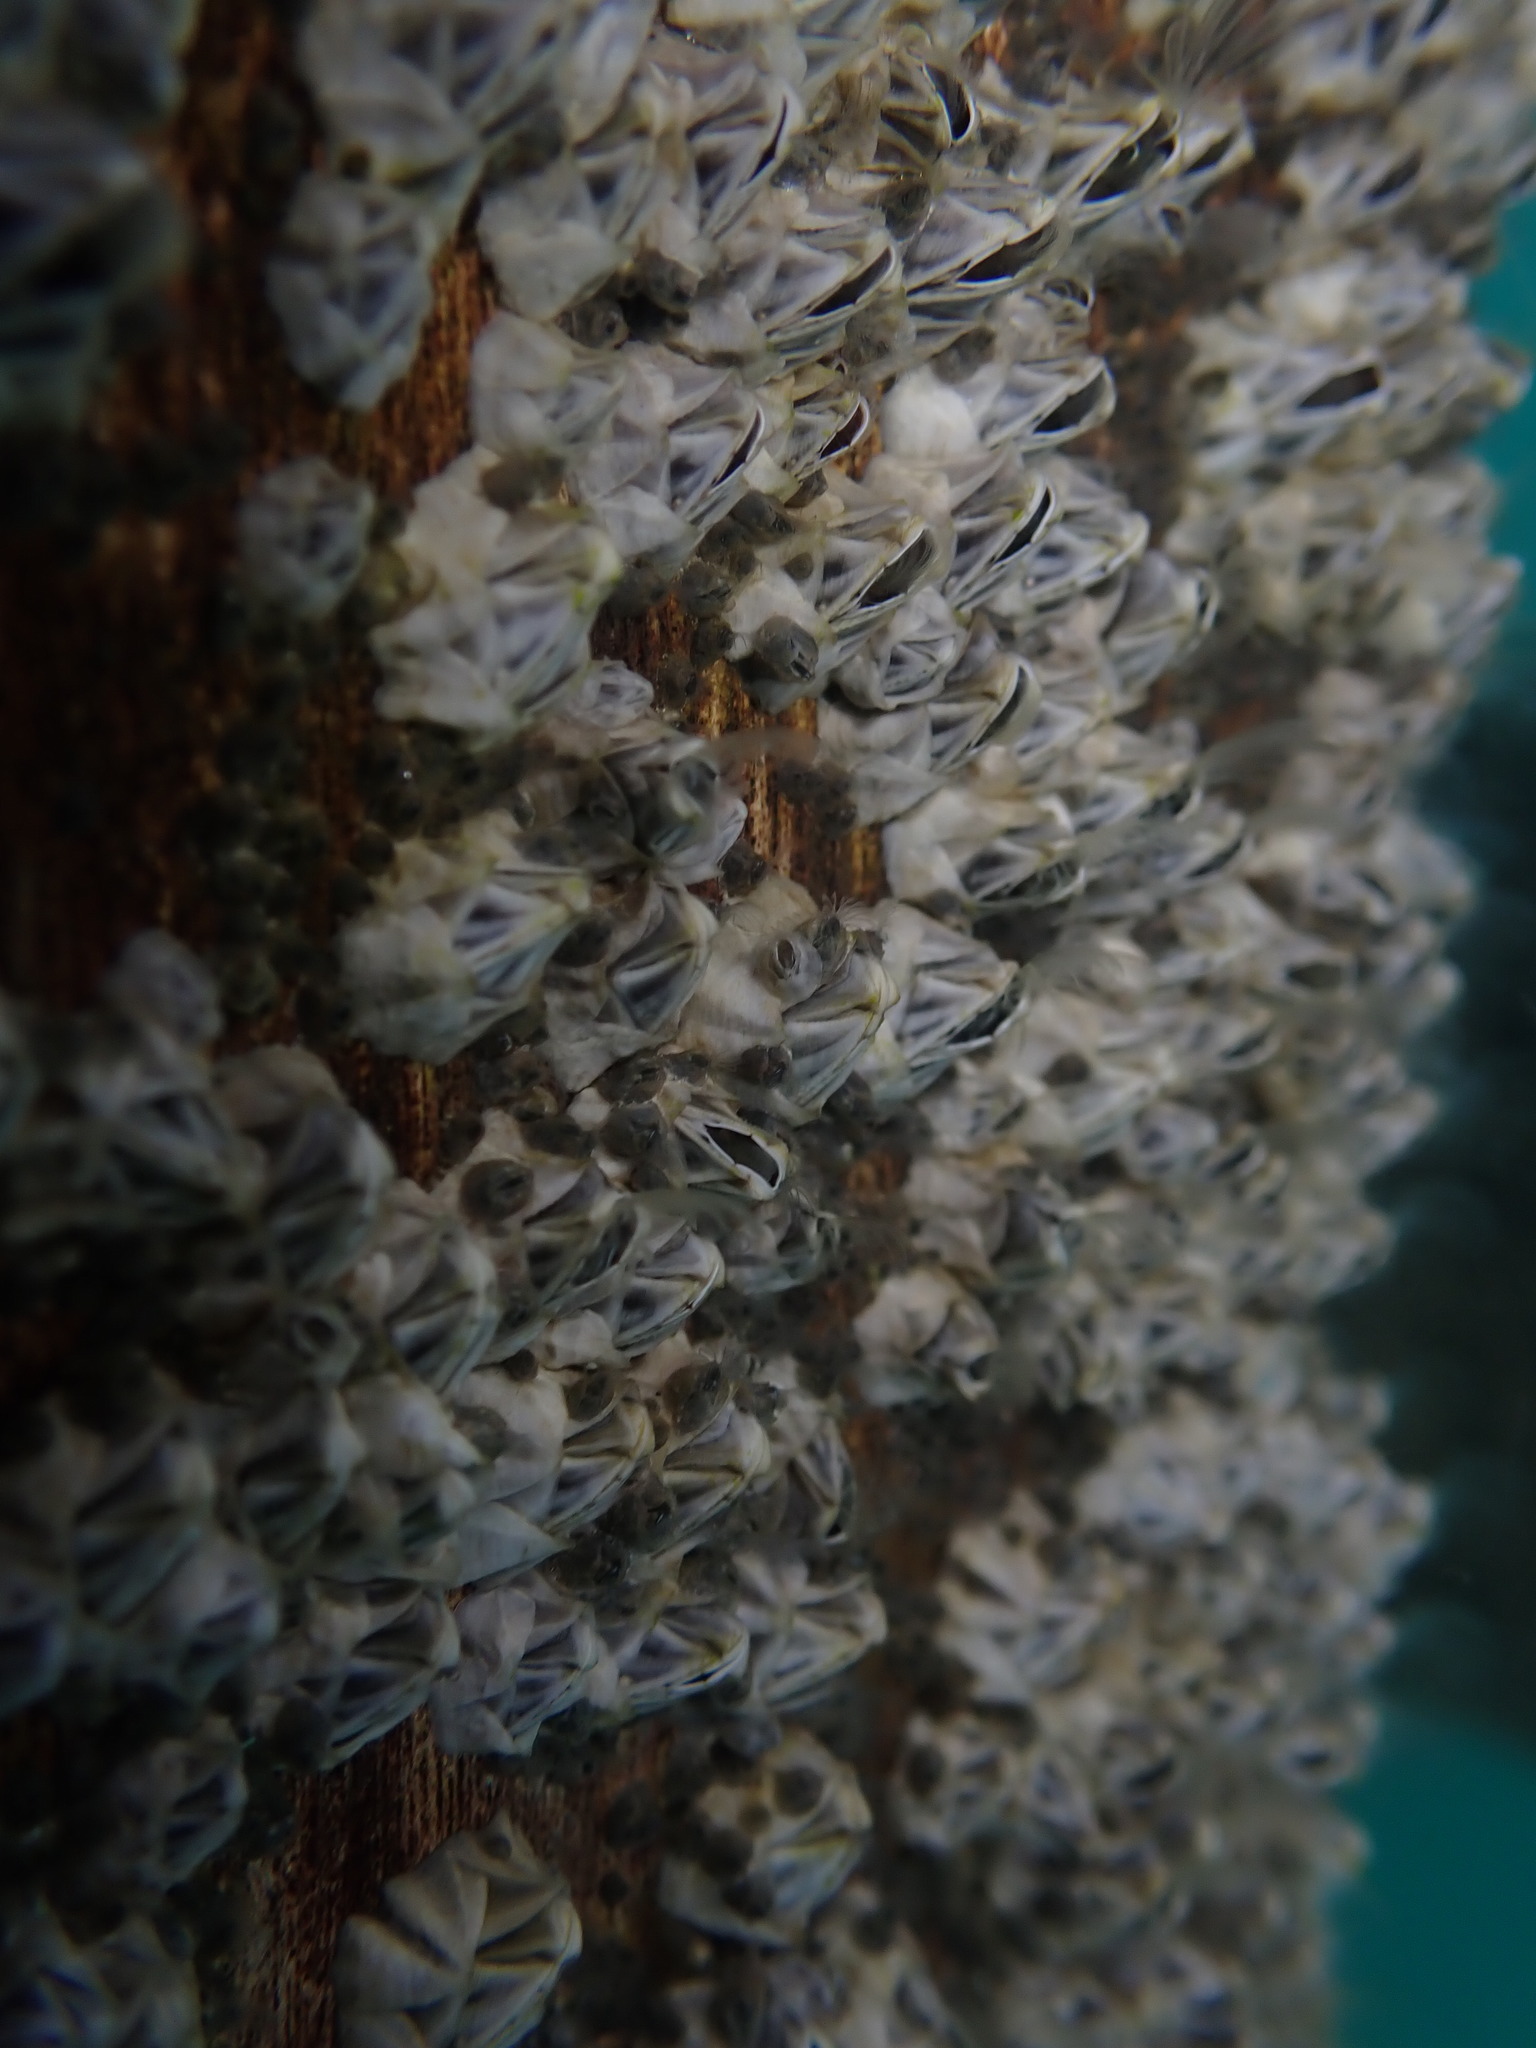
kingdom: Animalia
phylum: Arthropoda
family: Elminiidae
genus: Austrominius
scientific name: Austrominius modestus
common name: Australasian barnacle
